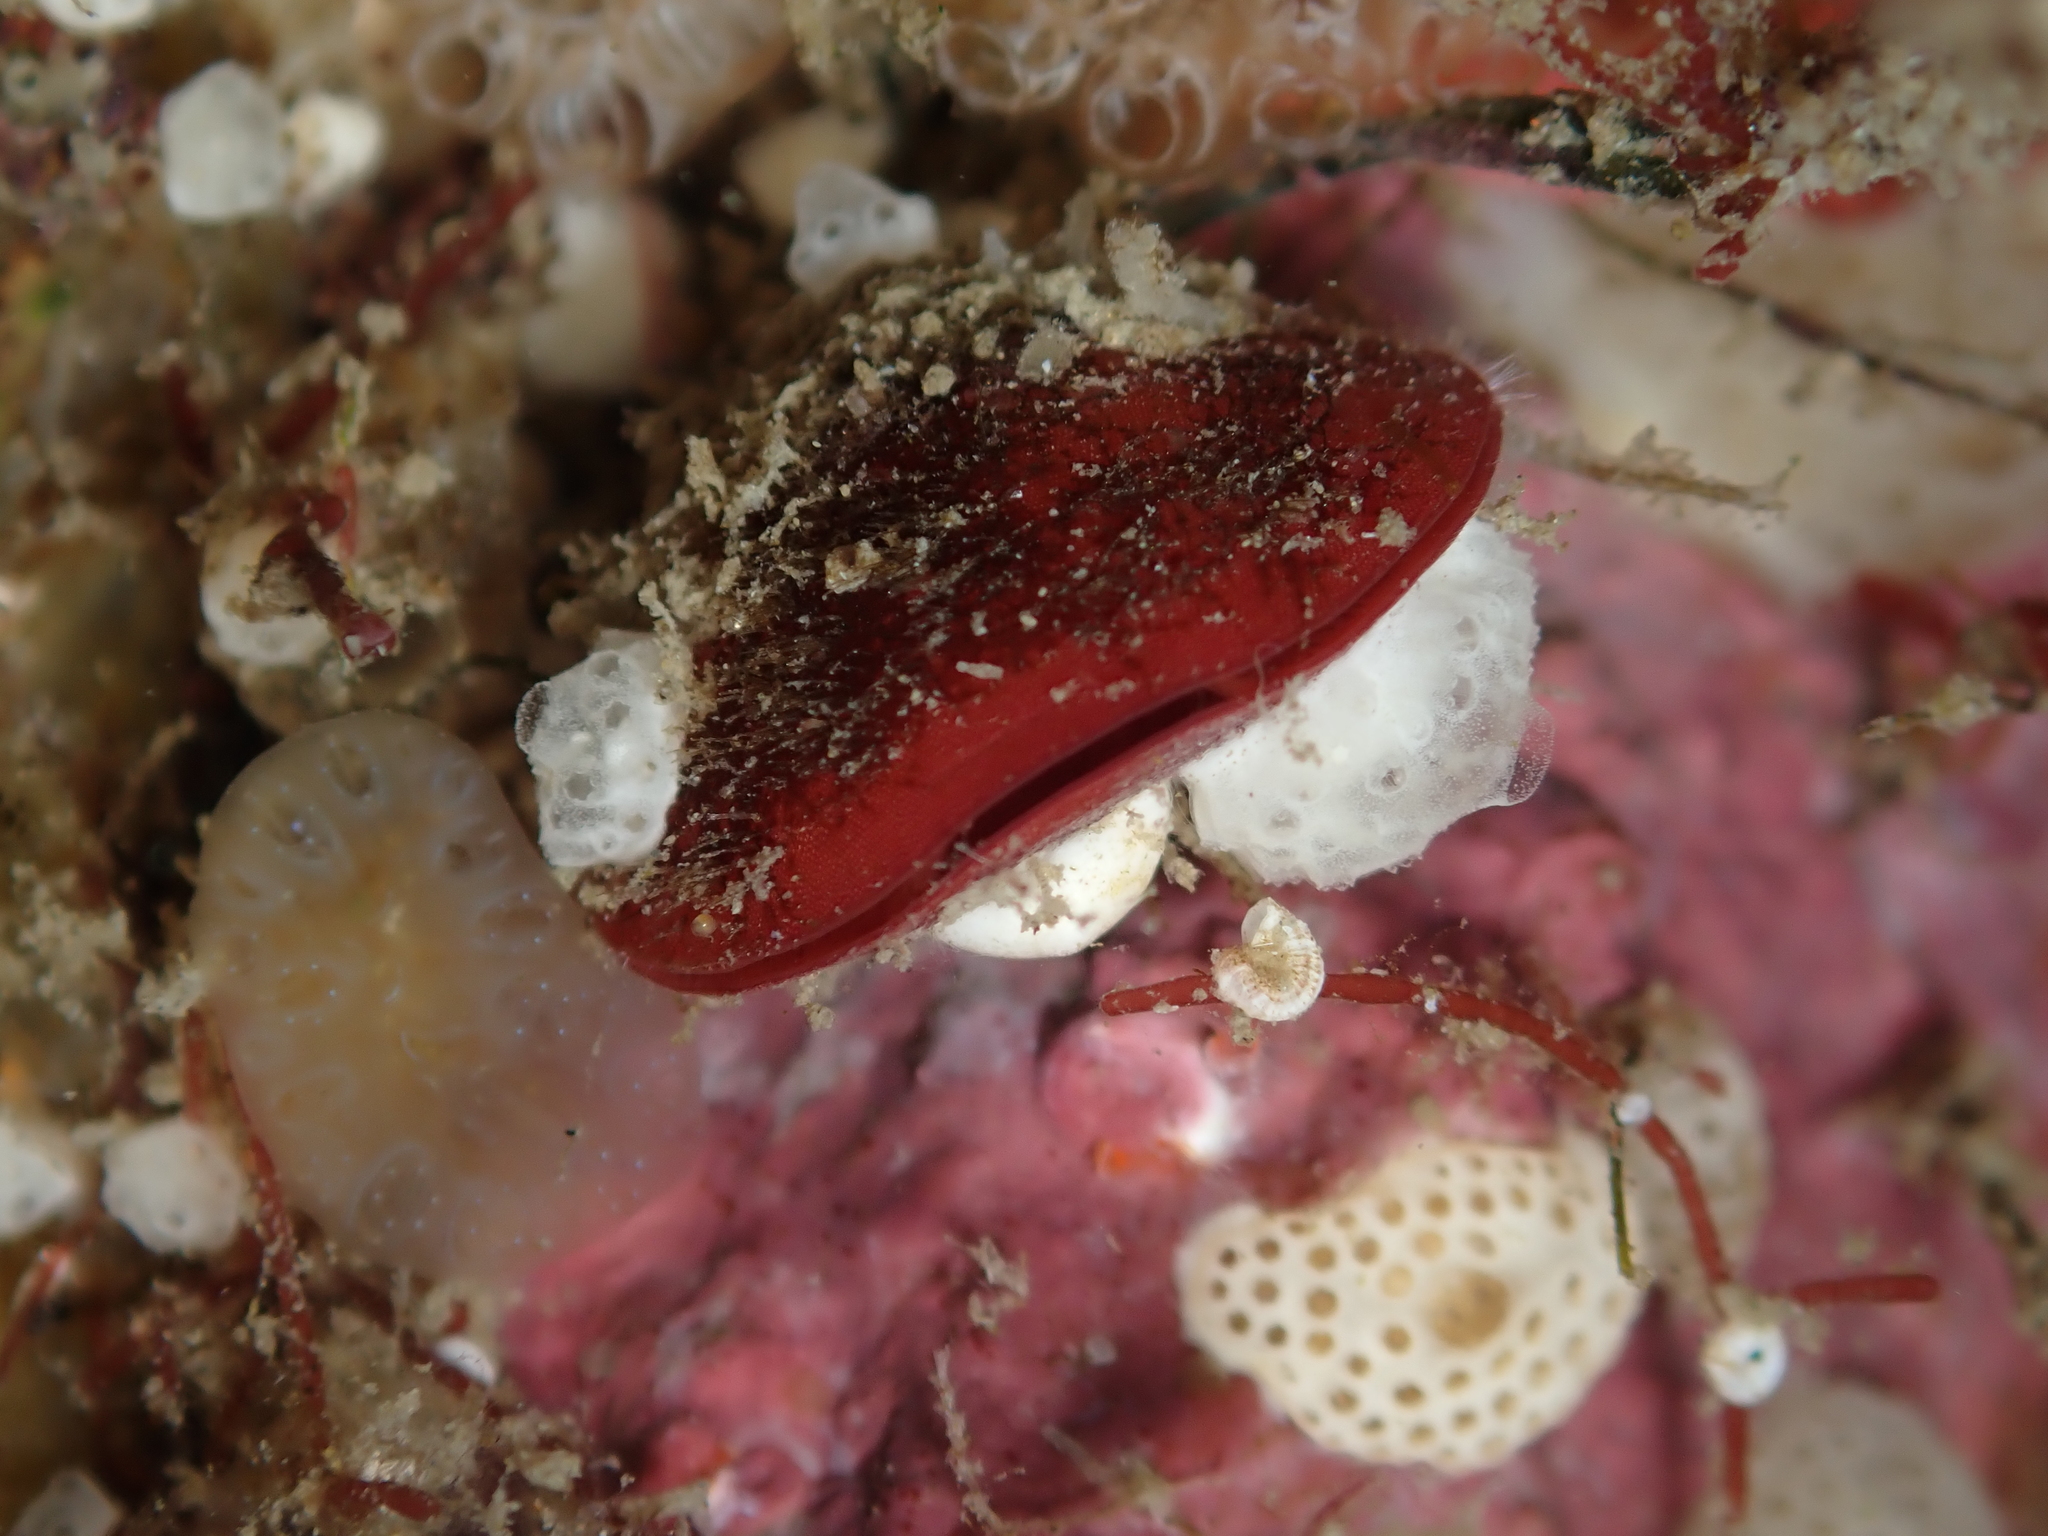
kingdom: Animalia
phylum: Brachiopoda
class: Rhynchonellata
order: Terebratulida
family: Terebratellidae
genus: Calloria
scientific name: Calloria inconspicua
